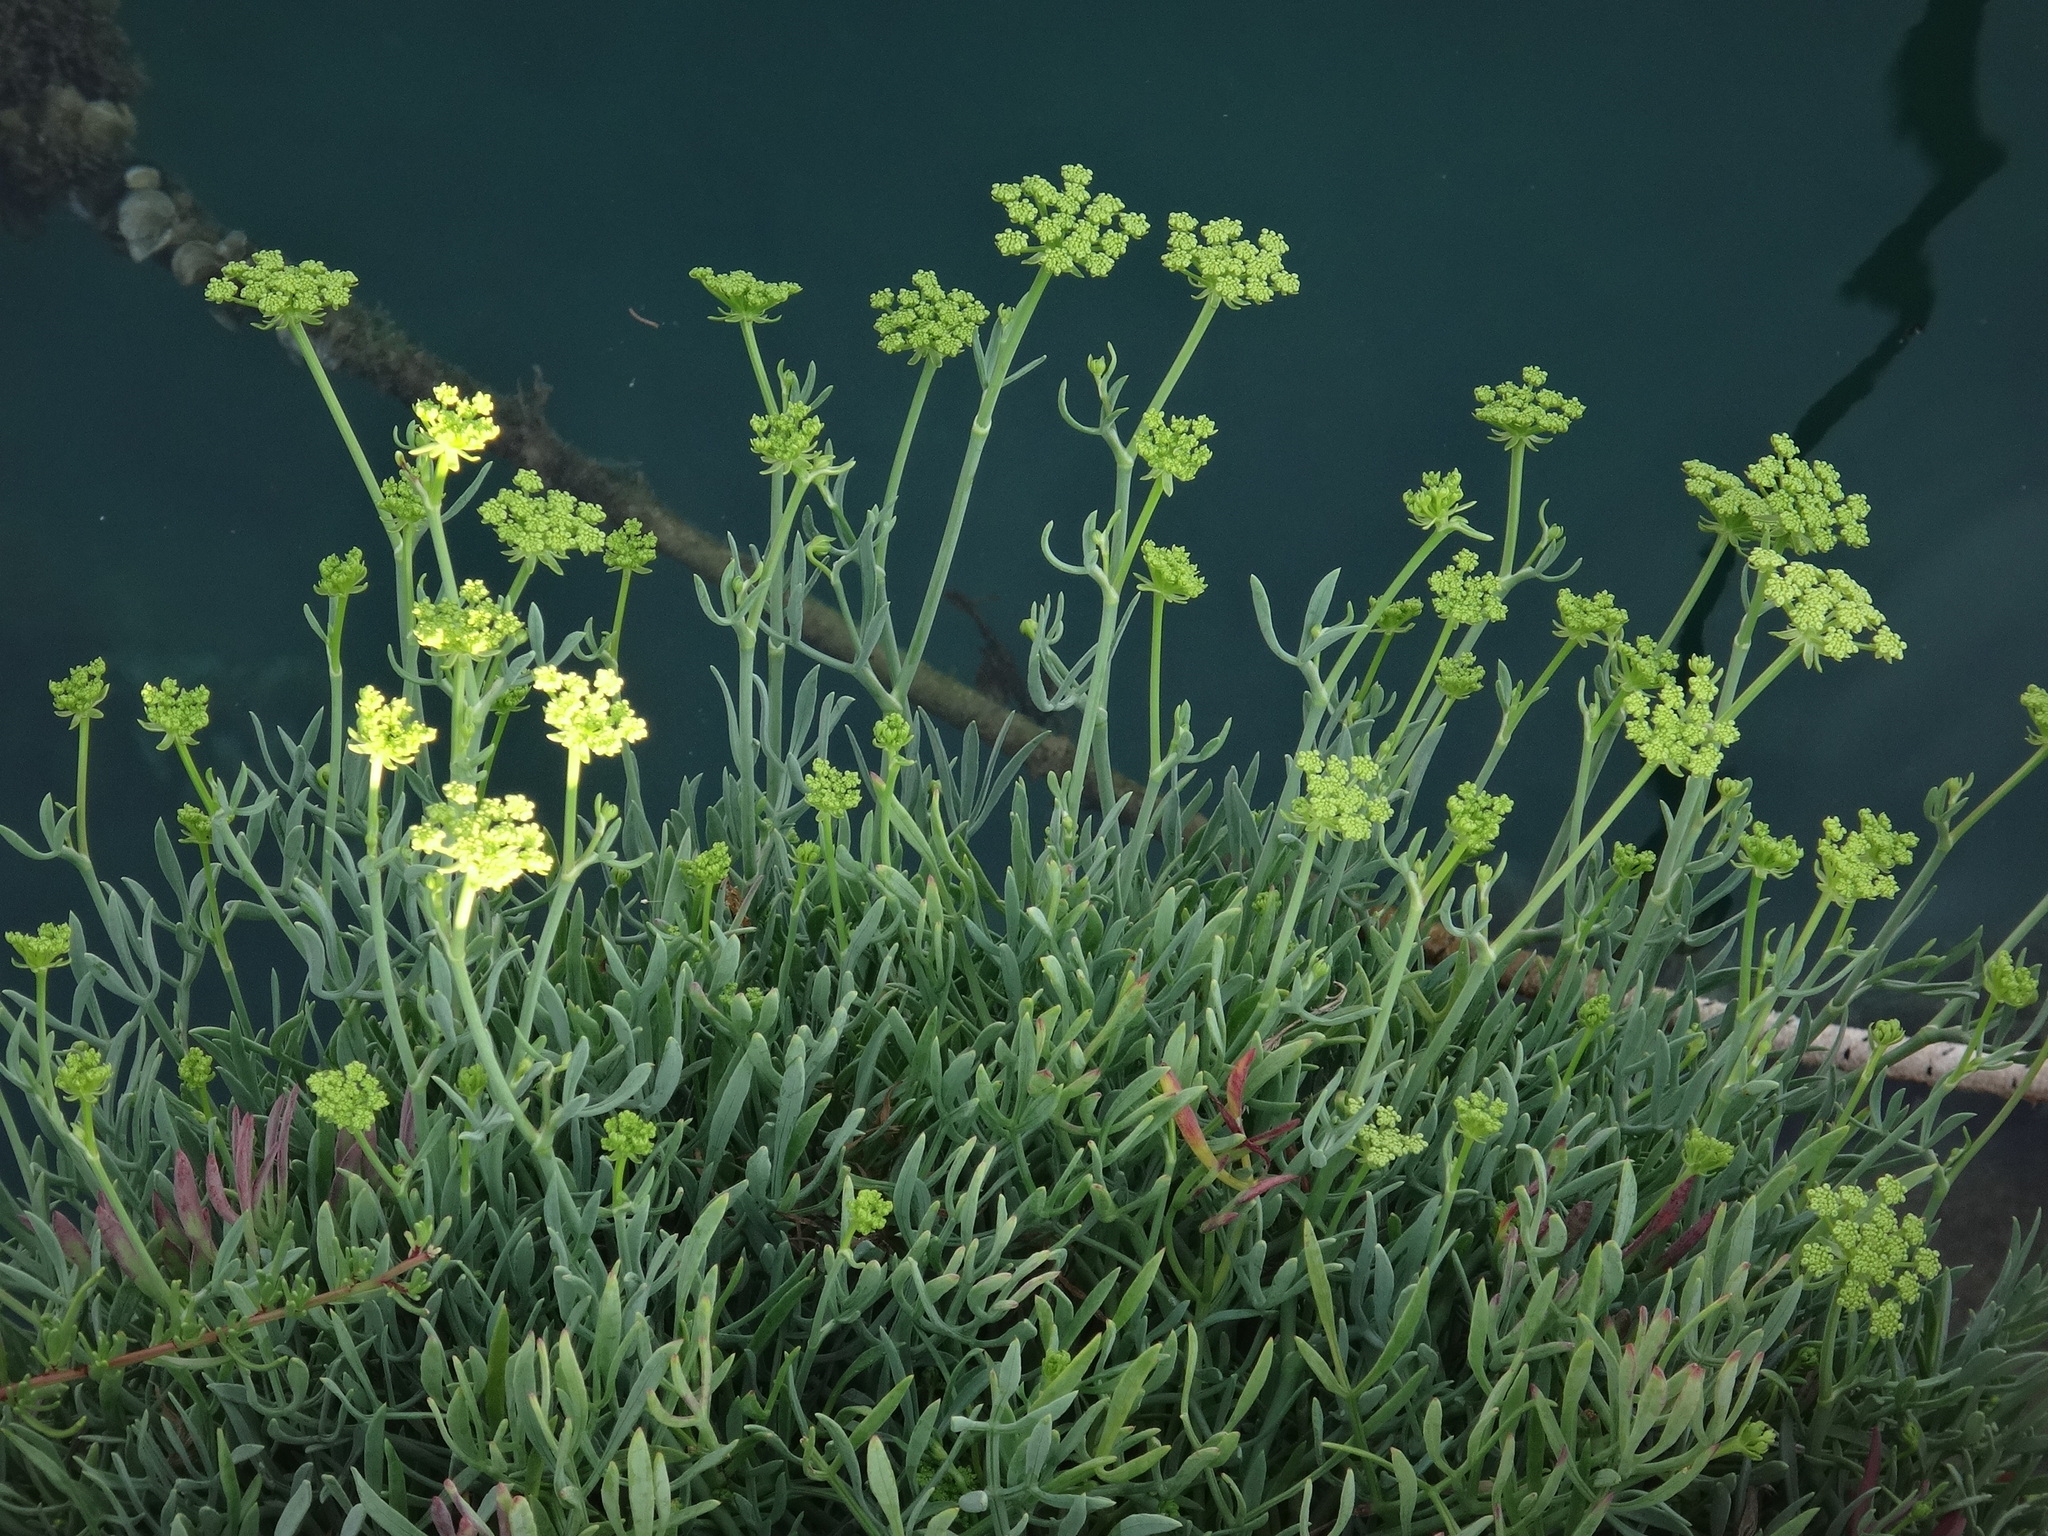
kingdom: Plantae
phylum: Tracheophyta
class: Magnoliopsida
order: Apiales
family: Apiaceae
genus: Crithmum
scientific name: Crithmum maritimum
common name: Rock samphire
